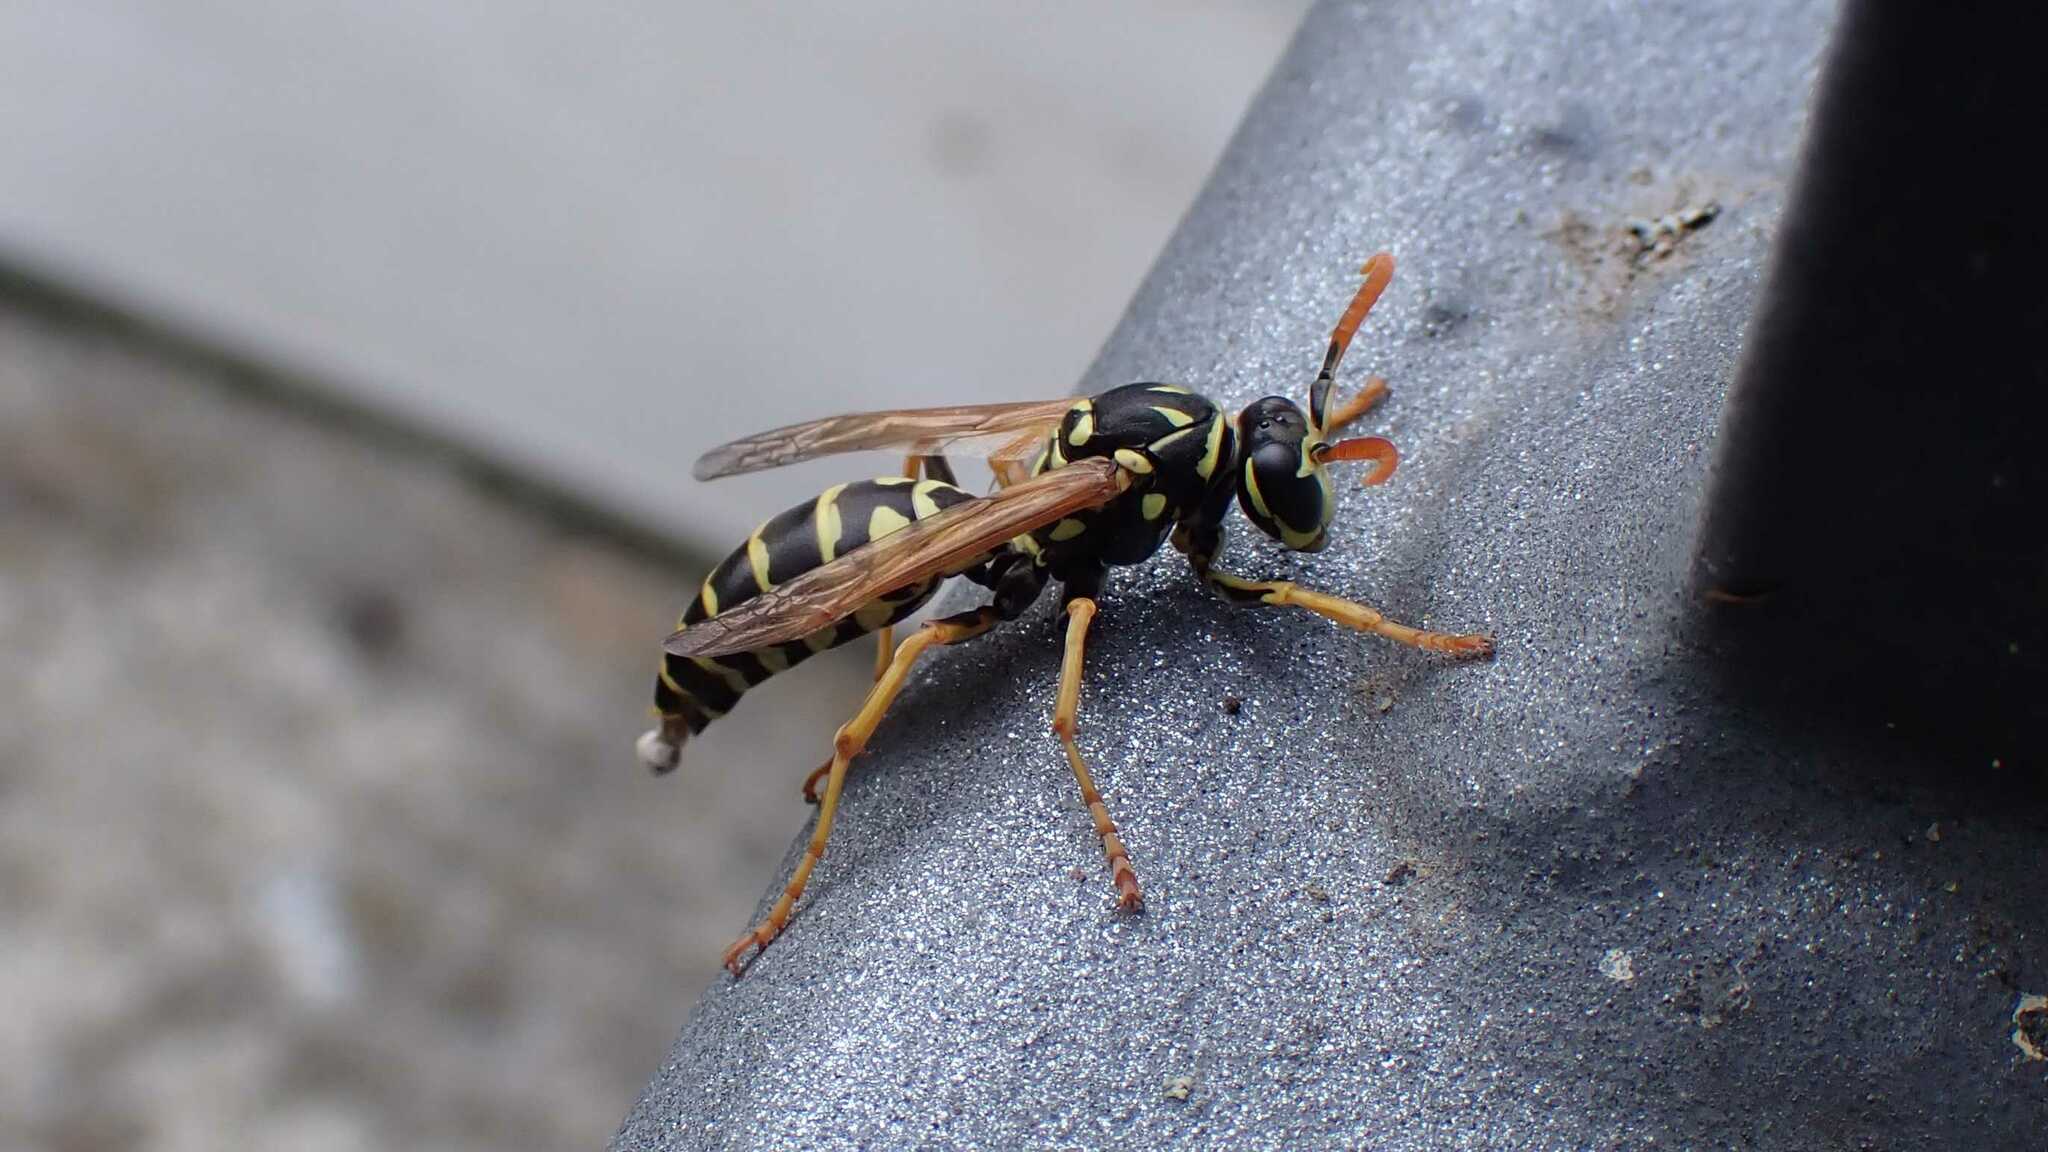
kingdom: Animalia
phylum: Arthropoda
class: Insecta
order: Hymenoptera
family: Eumenidae
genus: Polistes
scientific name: Polistes dominula
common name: Paper wasp
